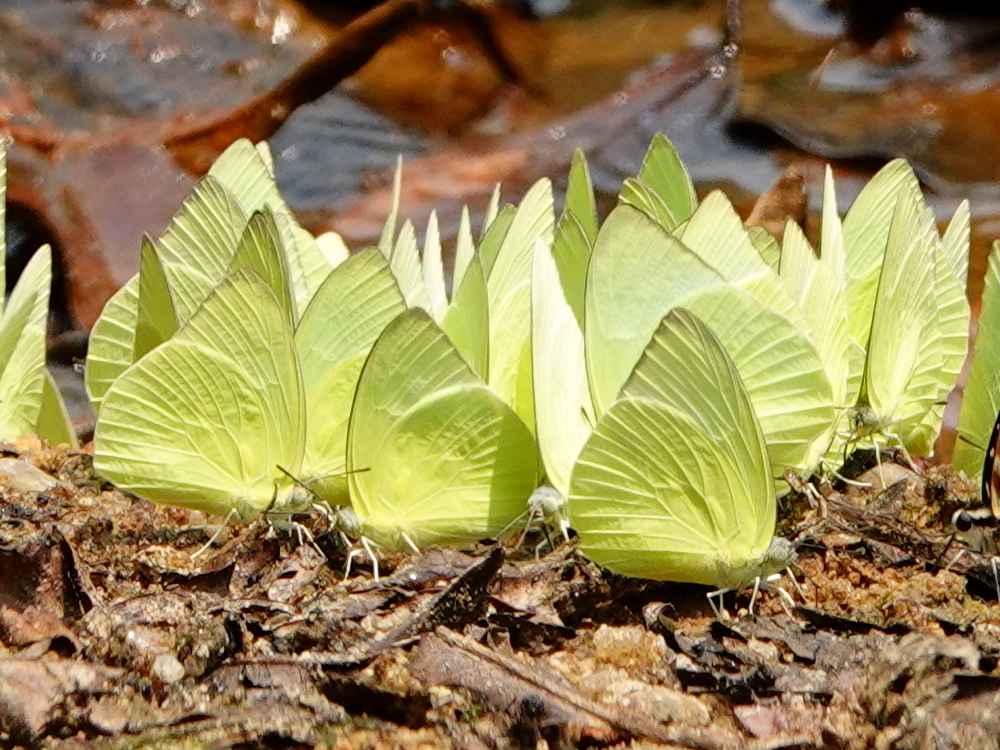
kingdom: Animalia
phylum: Arthropoda
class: Insecta
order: Lepidoptera
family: Pieridae
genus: Catopsilia
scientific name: Catopsilia pomona
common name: Common emigrant
